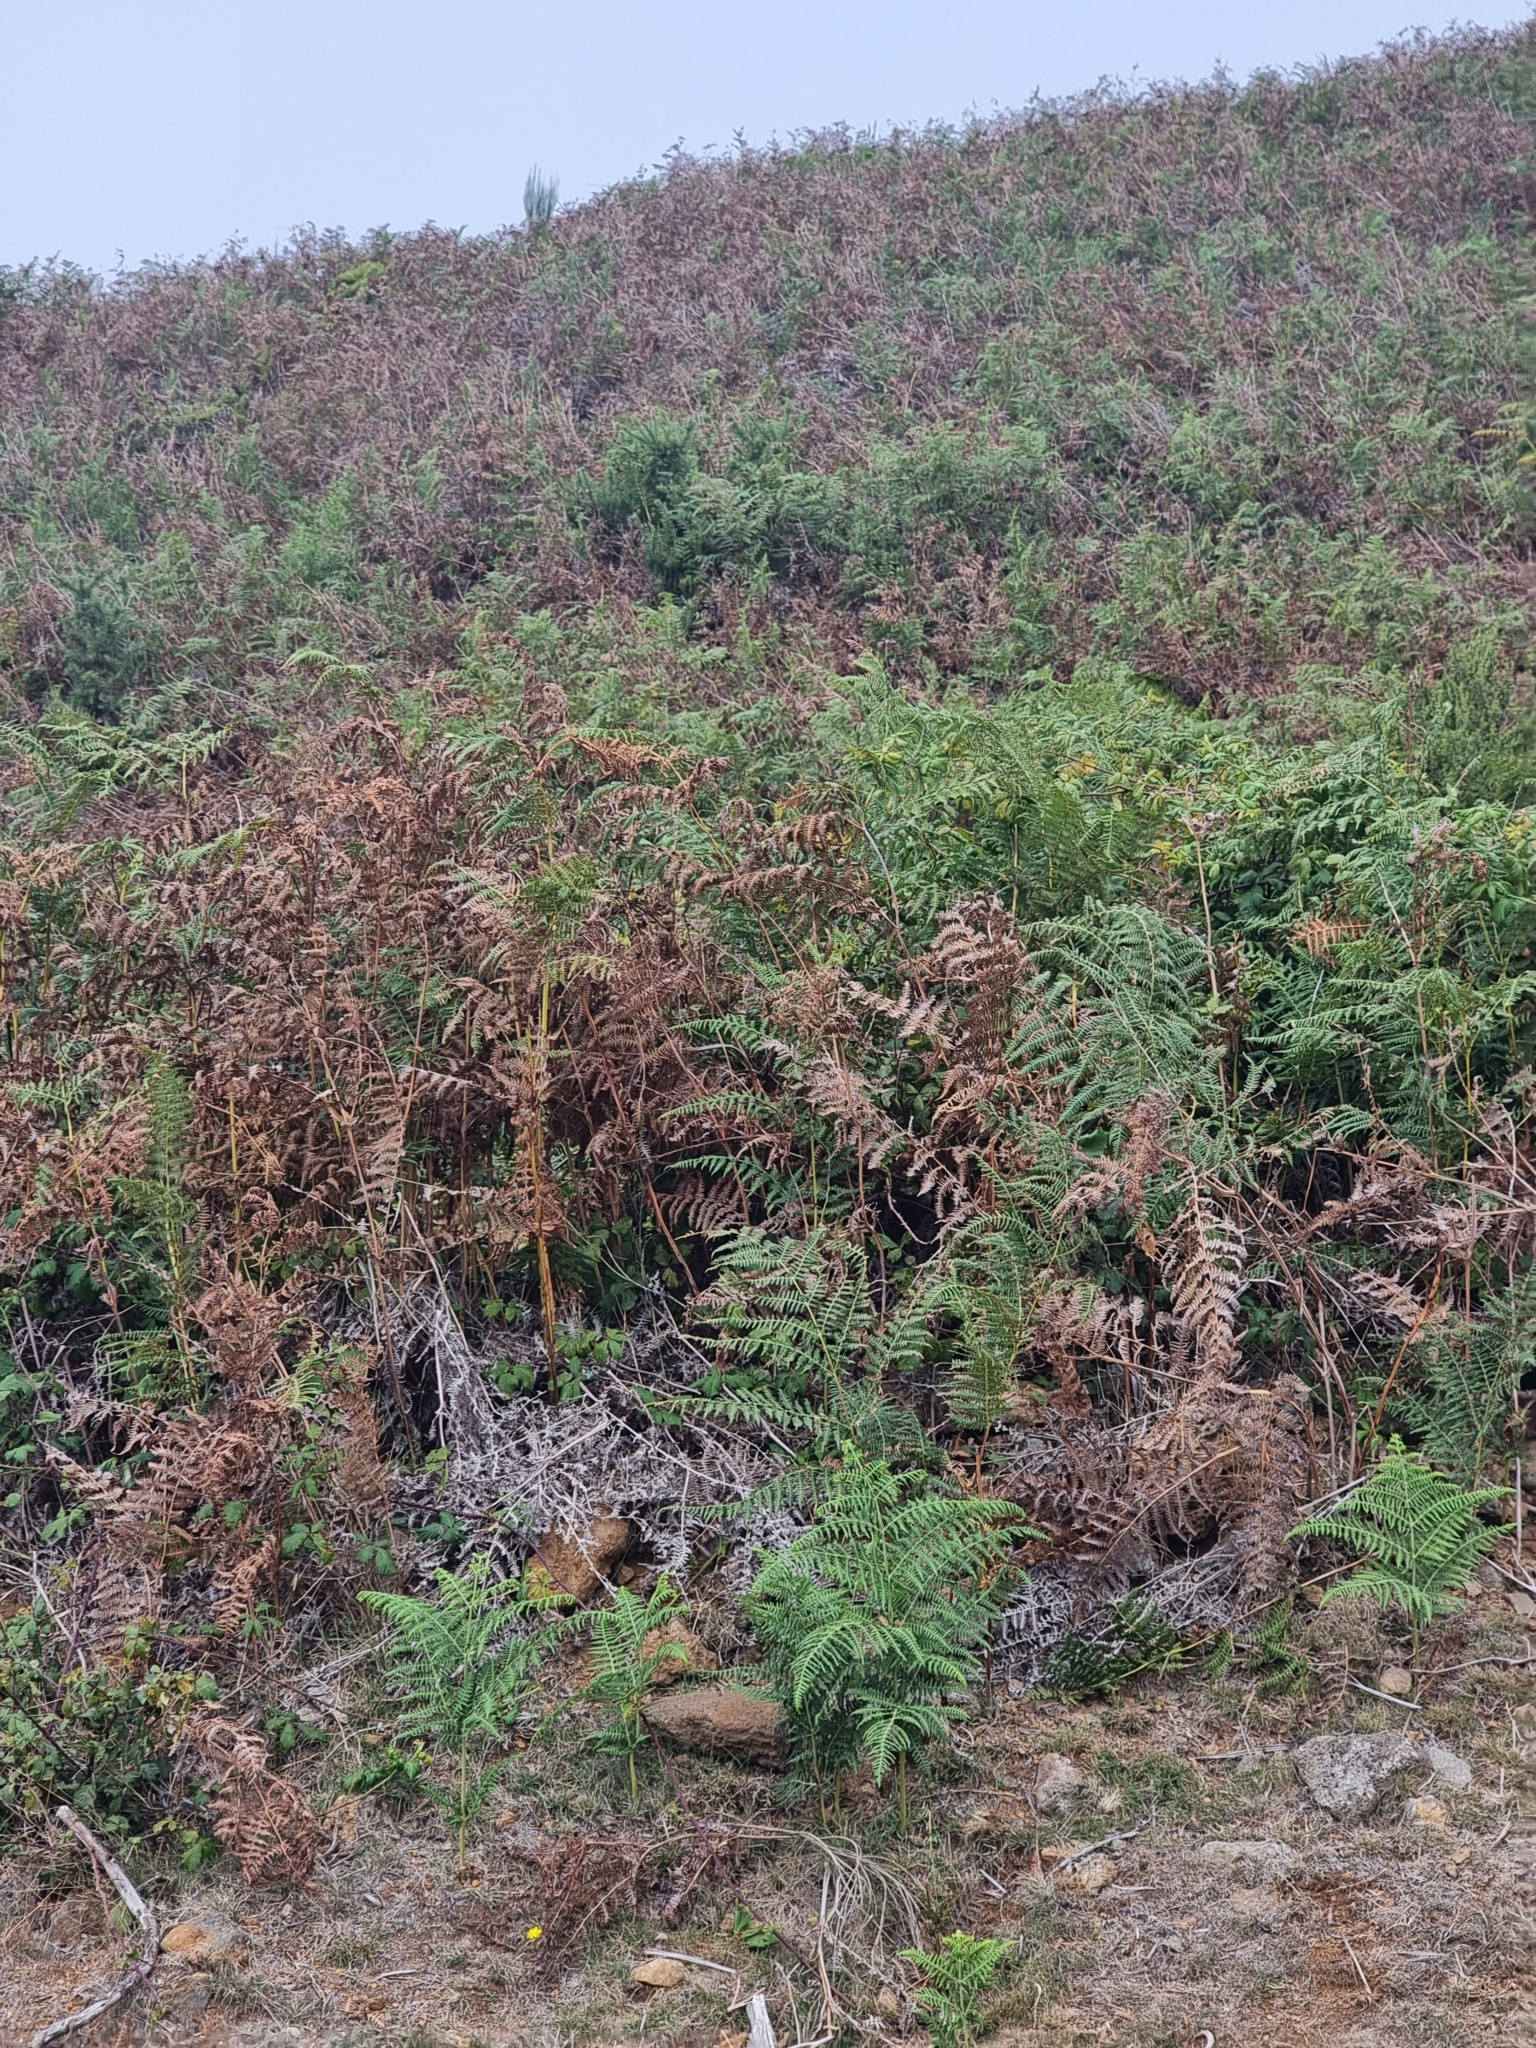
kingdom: Plantae
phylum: Tracheophyta
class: Polypodiopsida
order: Polypodiales
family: Dennstaedtiaceae
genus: Pteridium
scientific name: Pteridium aquilinum
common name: Bracken
